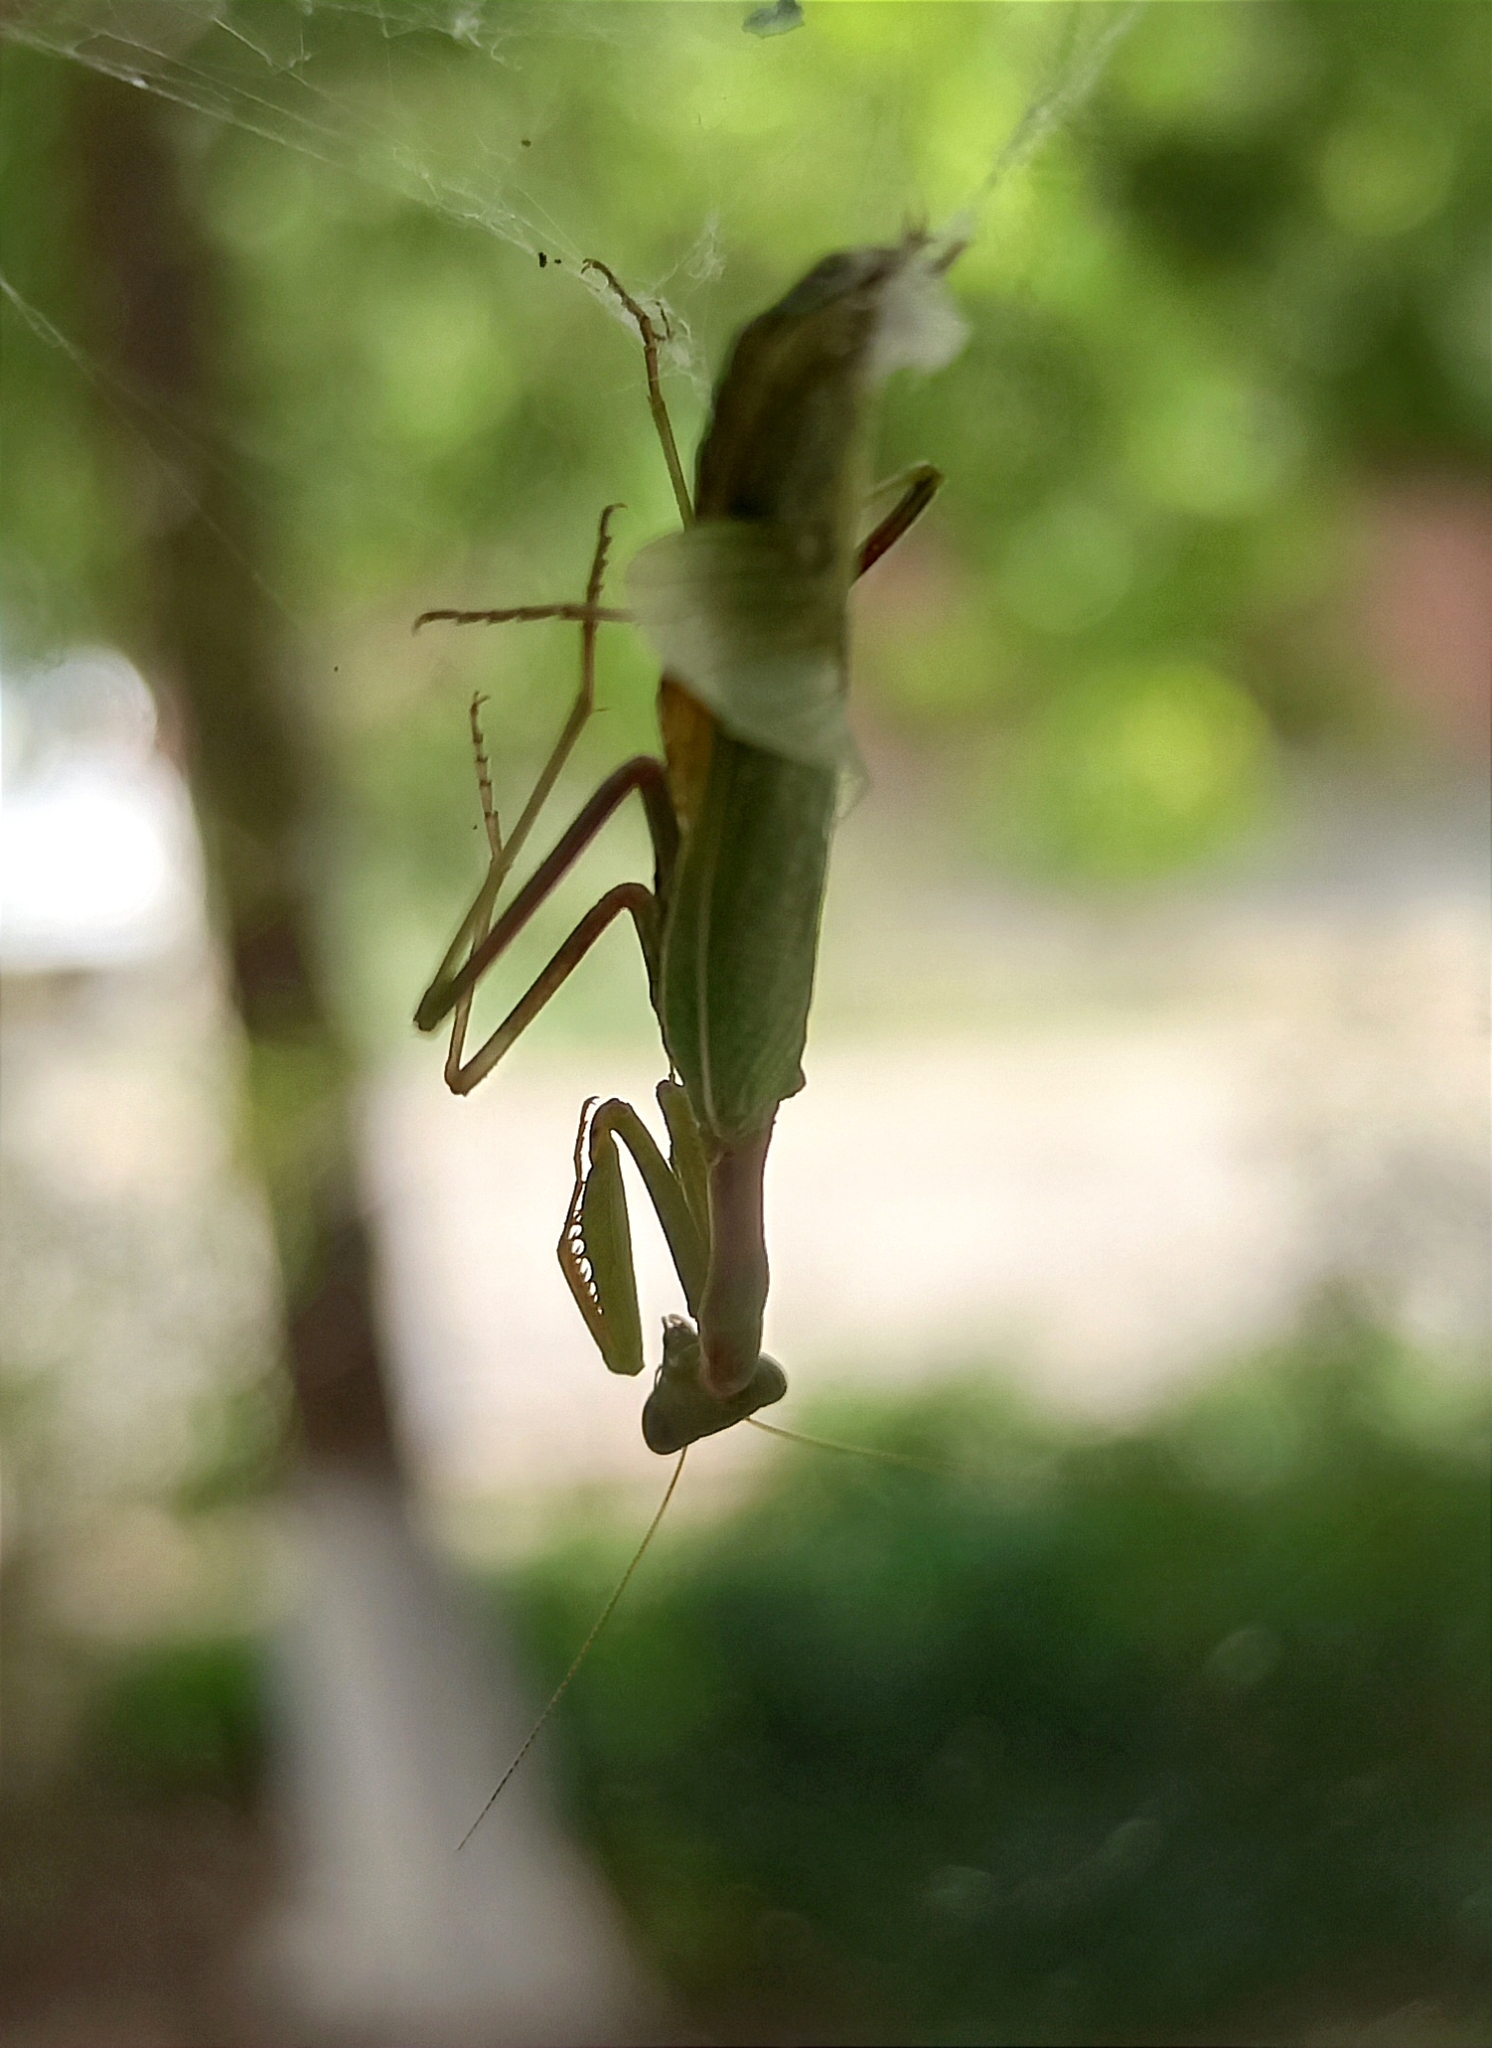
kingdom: Animalia
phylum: Arthropoda
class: Insecta
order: Mantodea
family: Eremiaphilidae
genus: Iris
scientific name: Iris polystictica
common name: Dot-winged mantis
